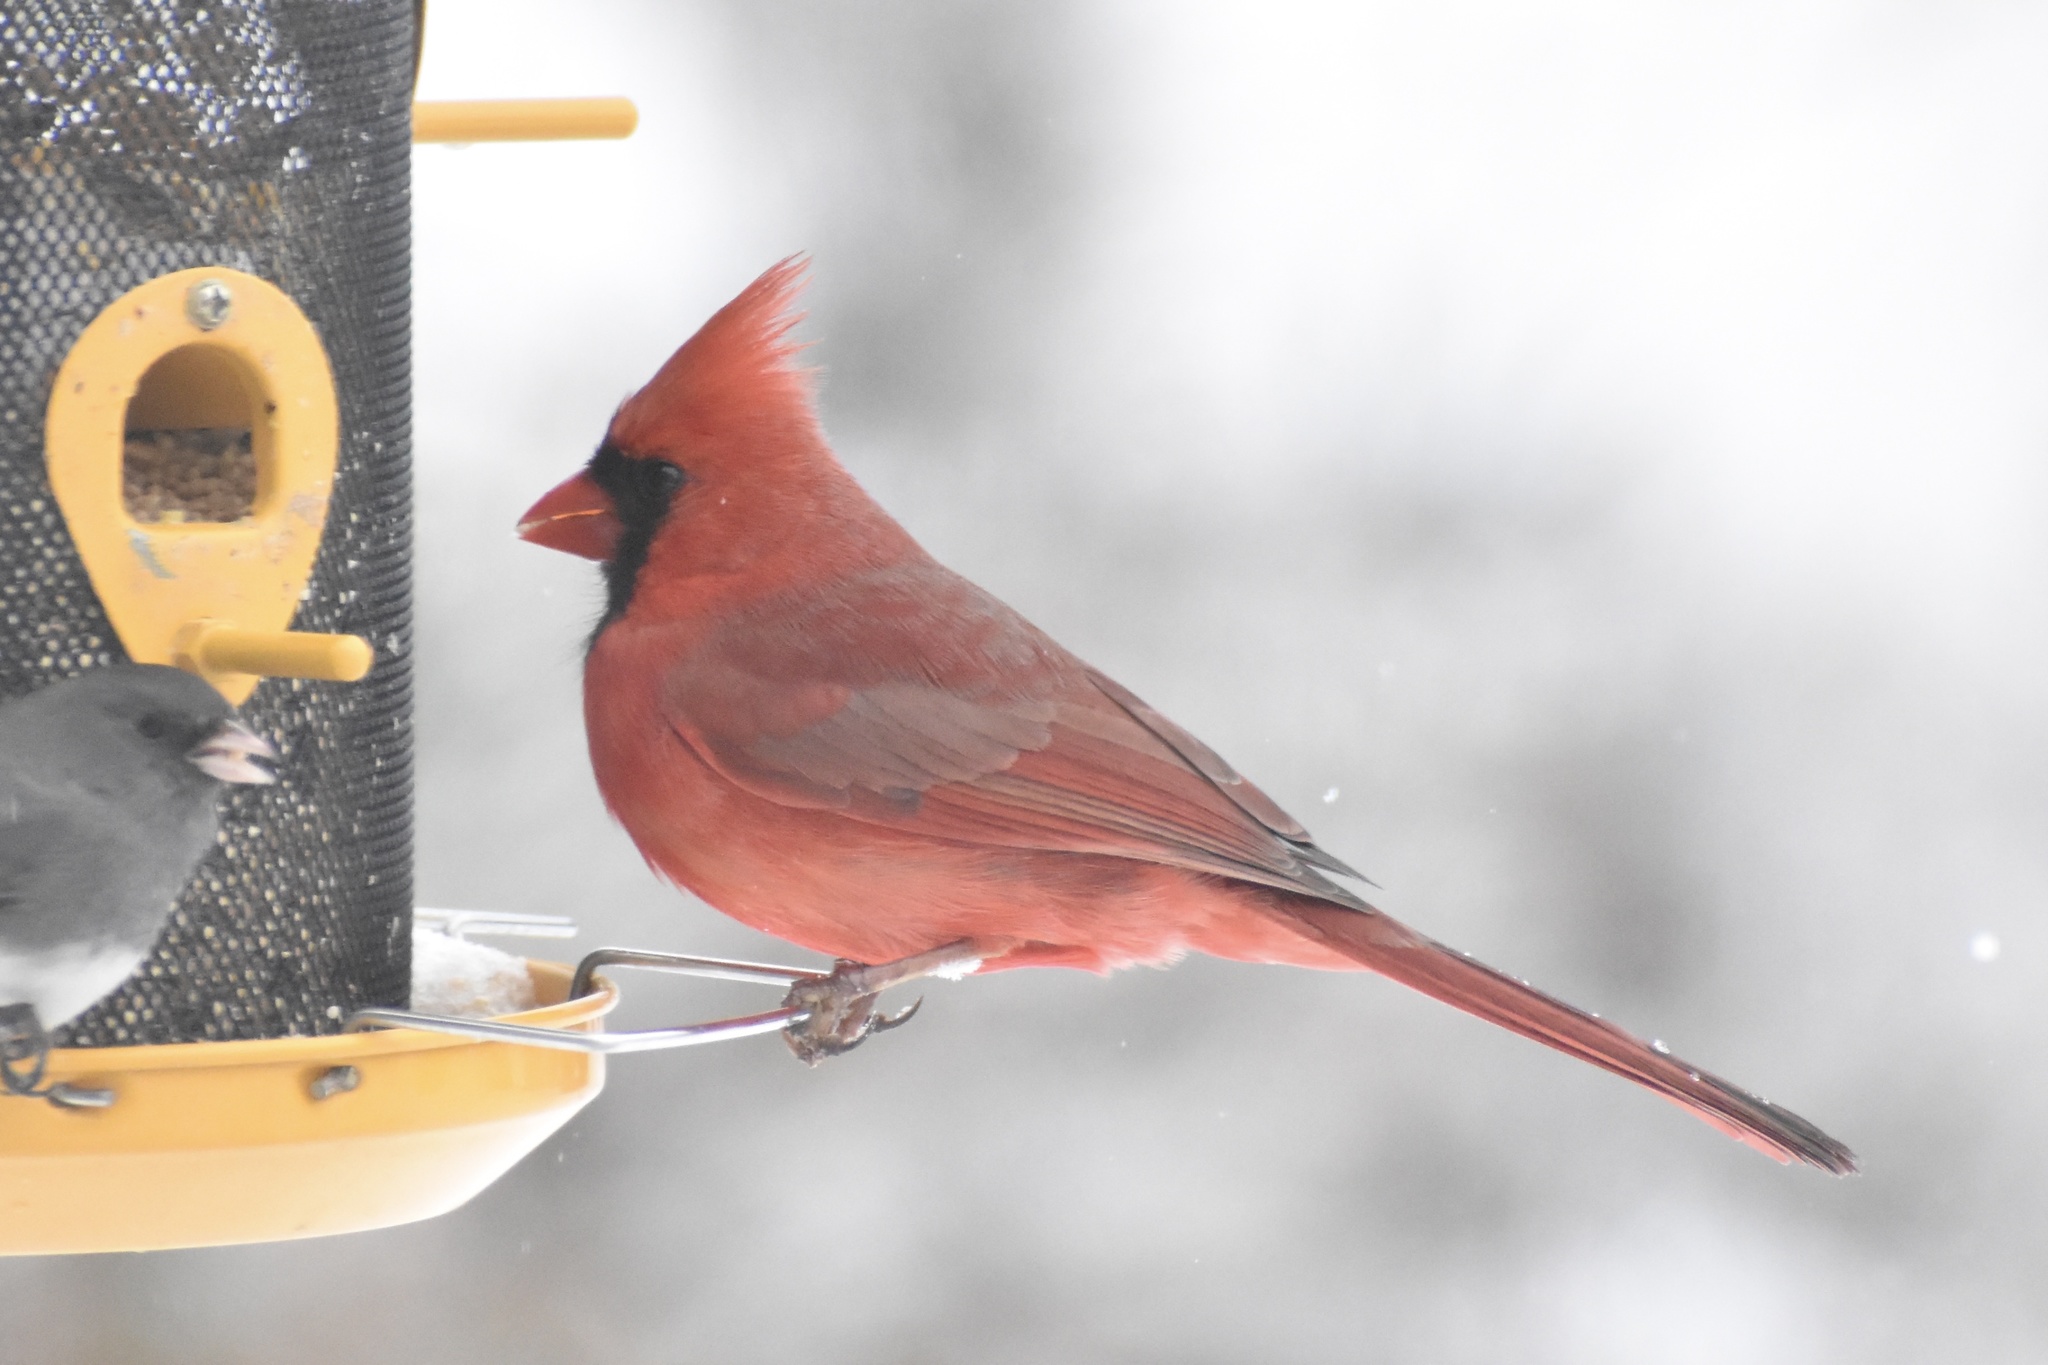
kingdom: Animalia
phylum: Chordata
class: Aves
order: Passeriformes
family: Cardinalidae
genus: Cardinalis
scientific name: Cardinalis cardinalis
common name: Northern cardinal
